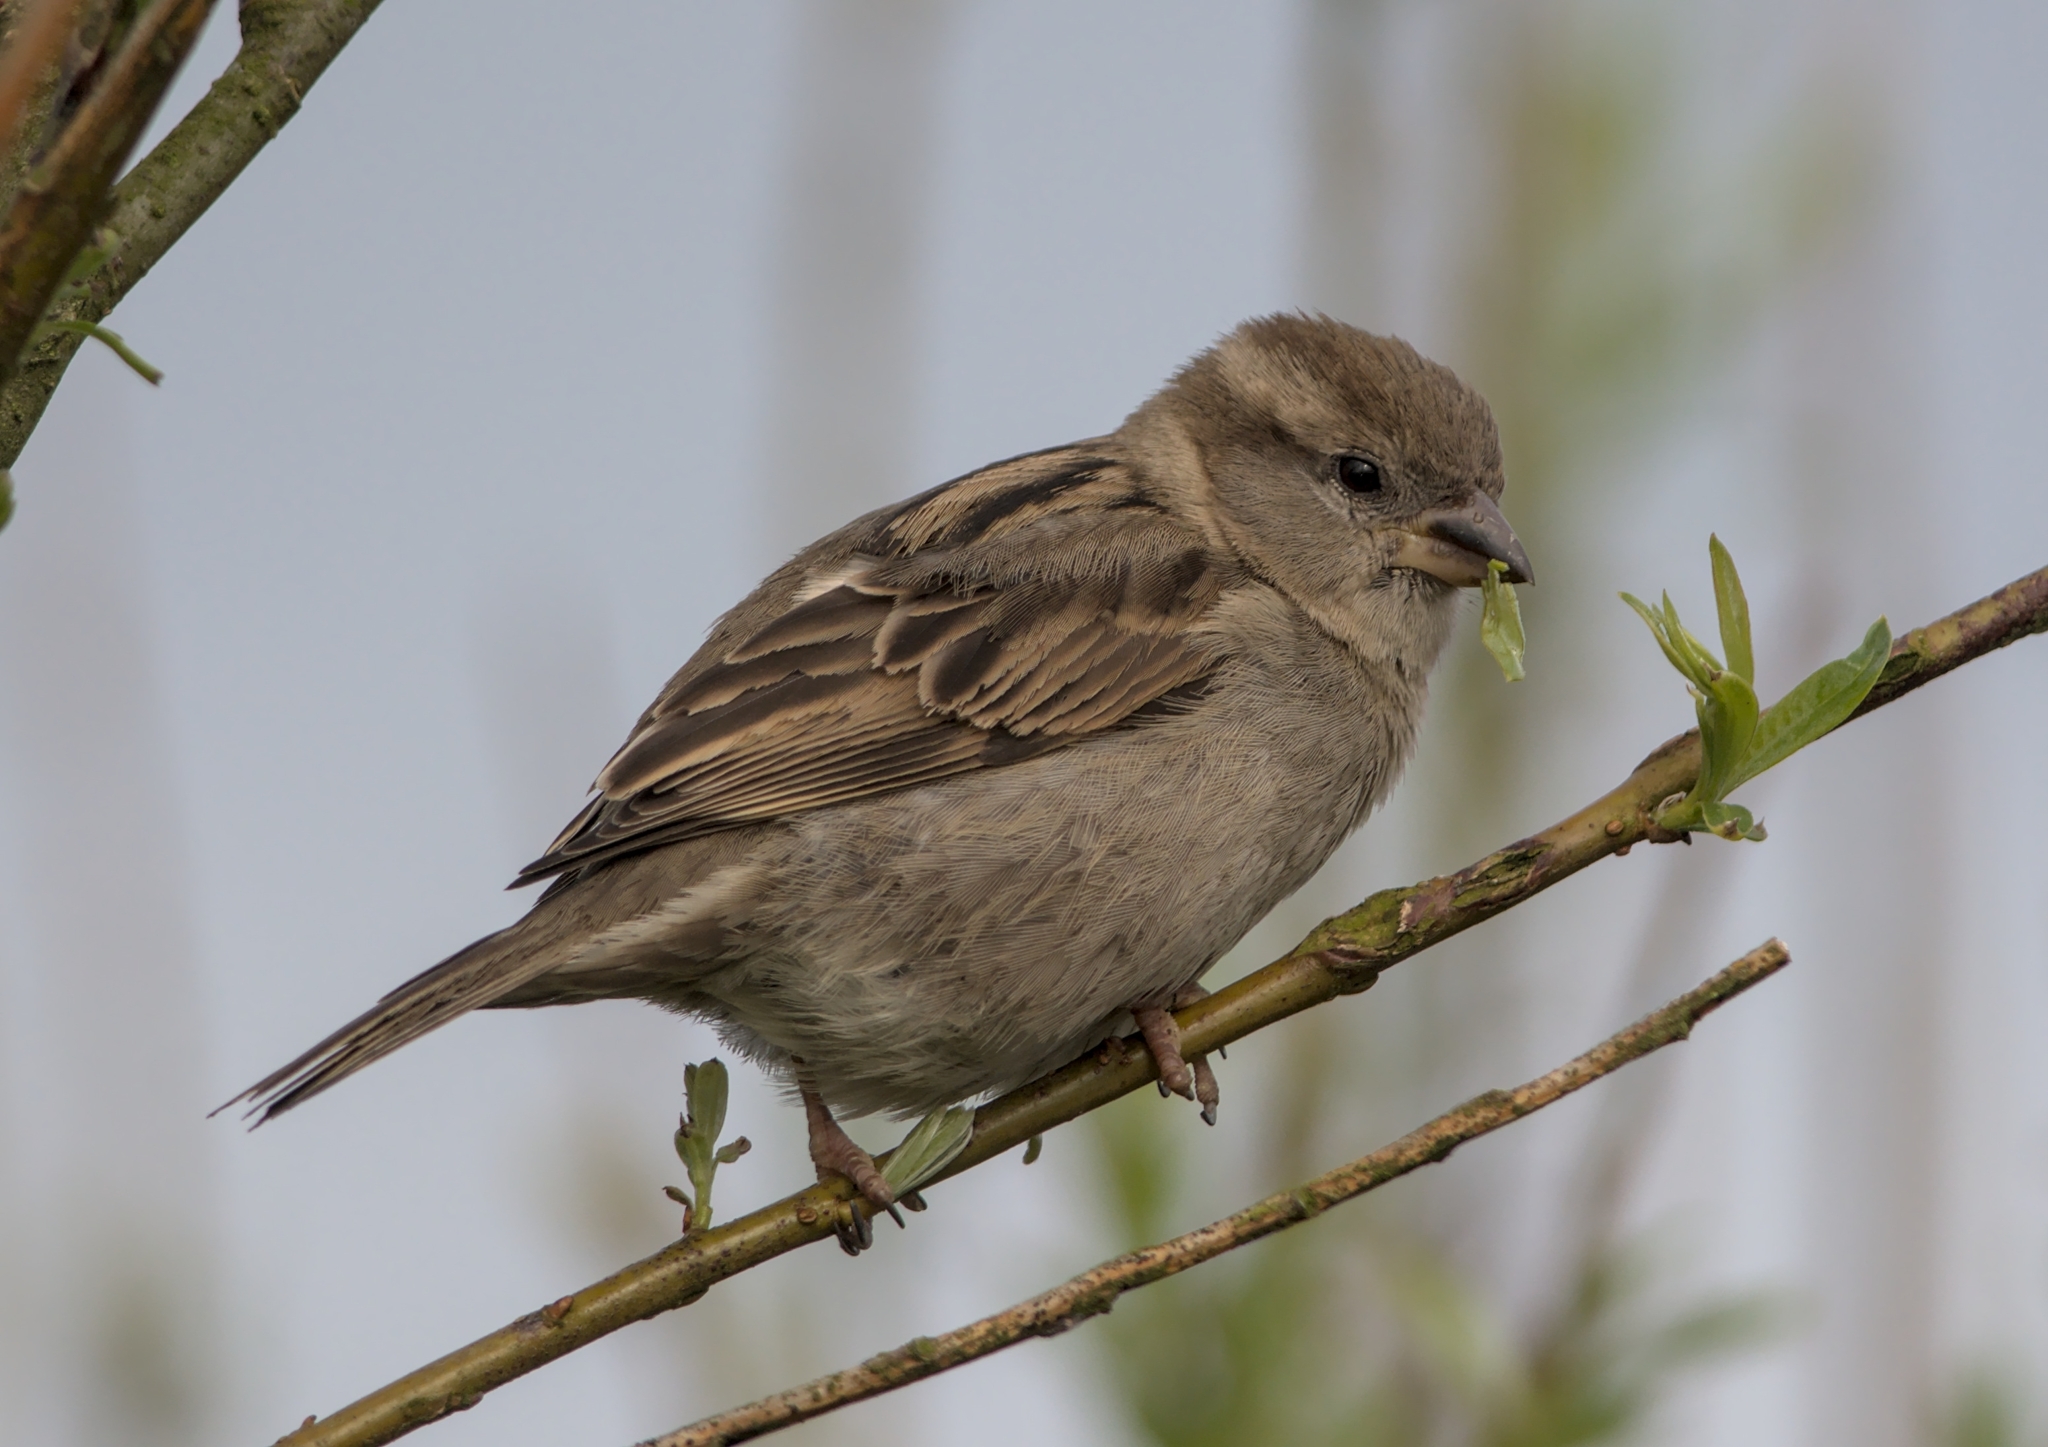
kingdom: Animalia
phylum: Chordata
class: Aves
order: Passeriformes
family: Passeridae
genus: Passer
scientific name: Passer domesticus
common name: House sparrow
